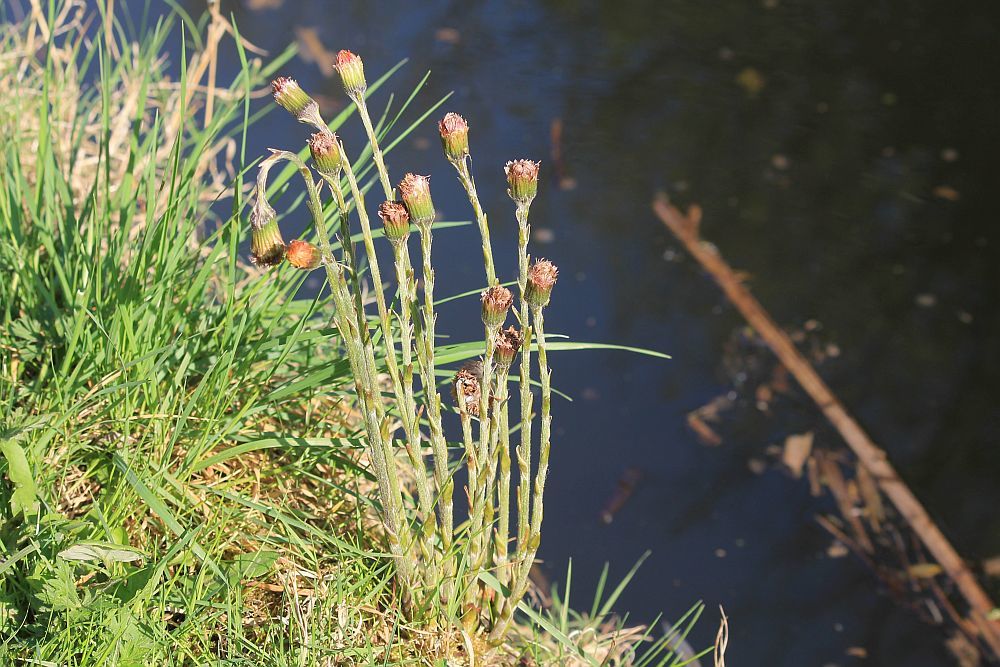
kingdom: Plantae
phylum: Tracheophyta
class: Magnoliopsida
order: Asterales
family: Asteraceae
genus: Tussilago
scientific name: Tussilago farfara
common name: Coltsfoot
